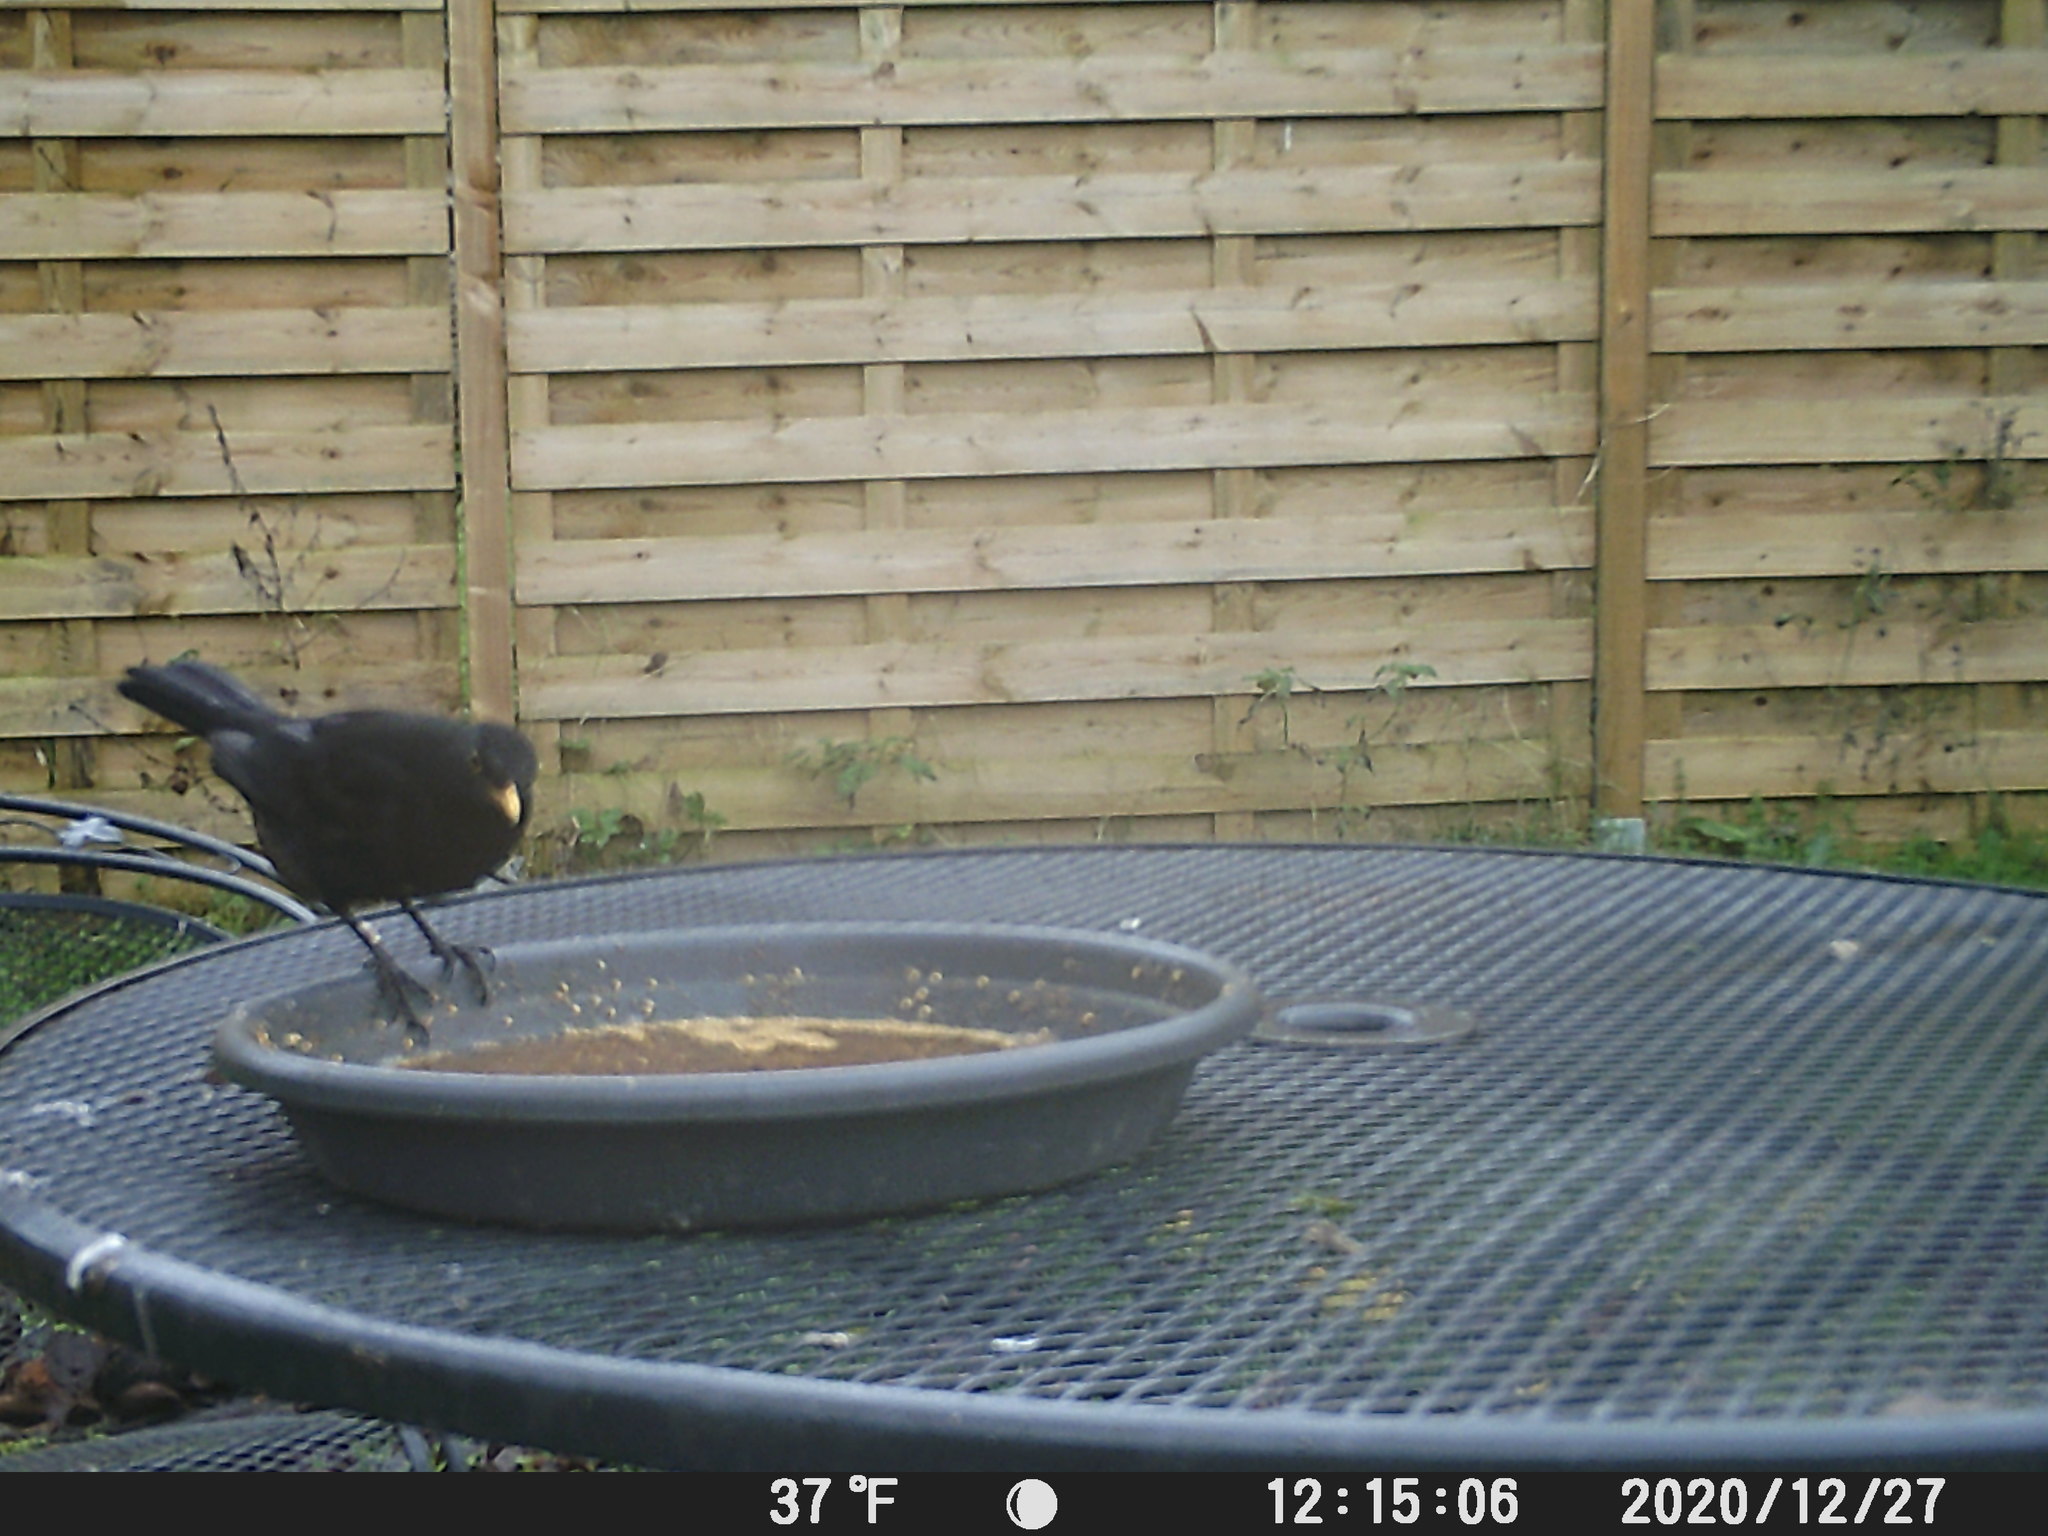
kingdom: Animalia
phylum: Chordata
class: Aves
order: Passeriformes
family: Turdidae
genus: Turdus
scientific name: Turdus merula
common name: Common blackbird
